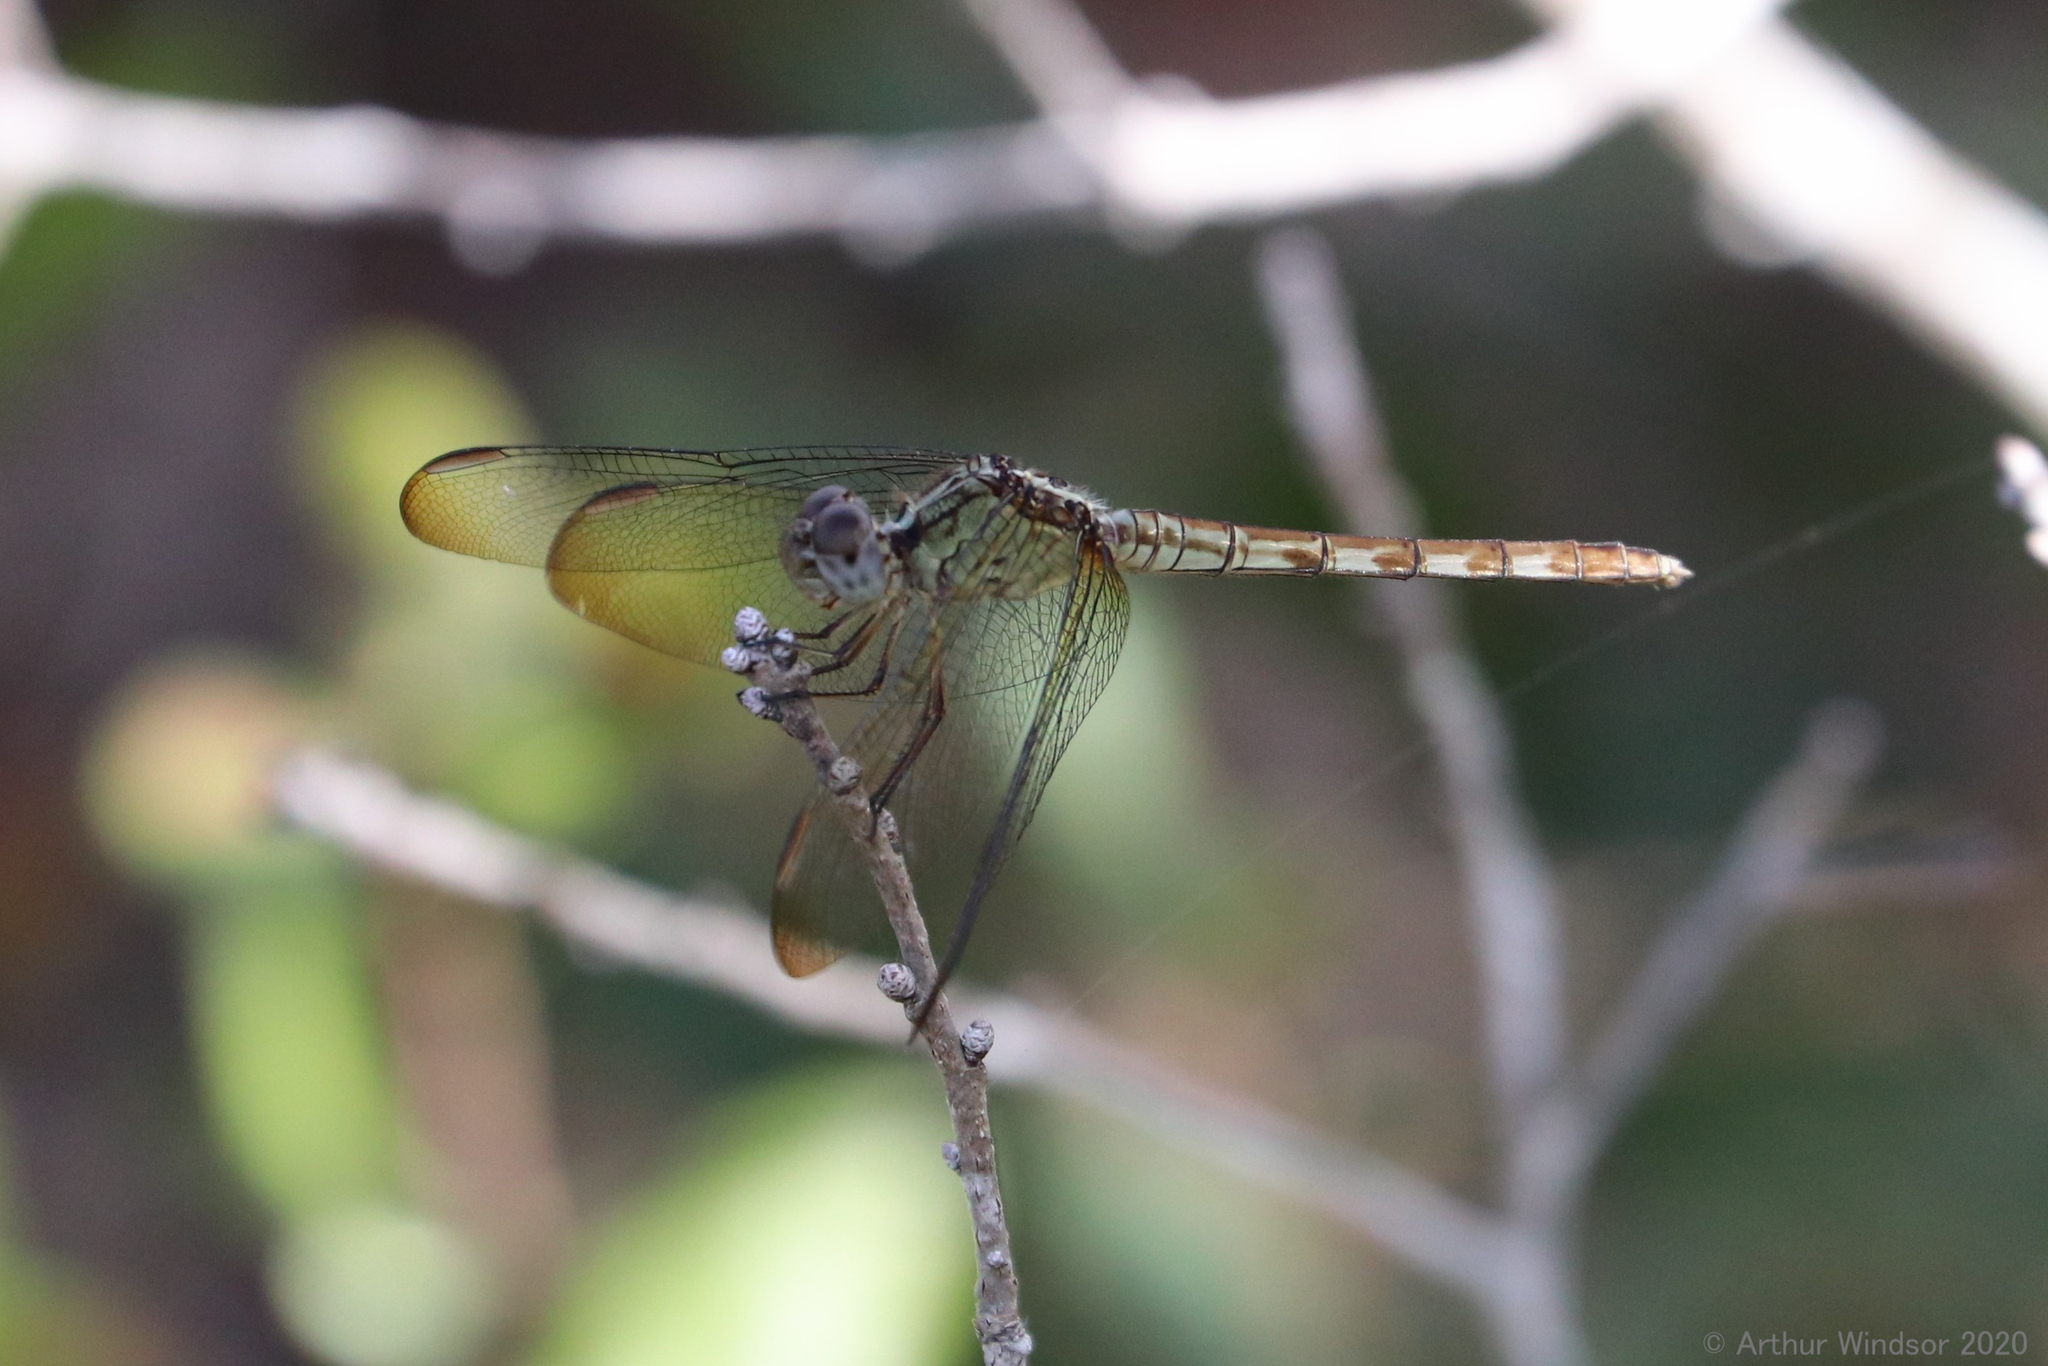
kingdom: Animalia
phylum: Arthropoda
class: Insecta
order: Odonata
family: Libellulidae
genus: Erythrodiplax
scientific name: Erythrodiplax umbrata
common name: Band-winged dragonlet
